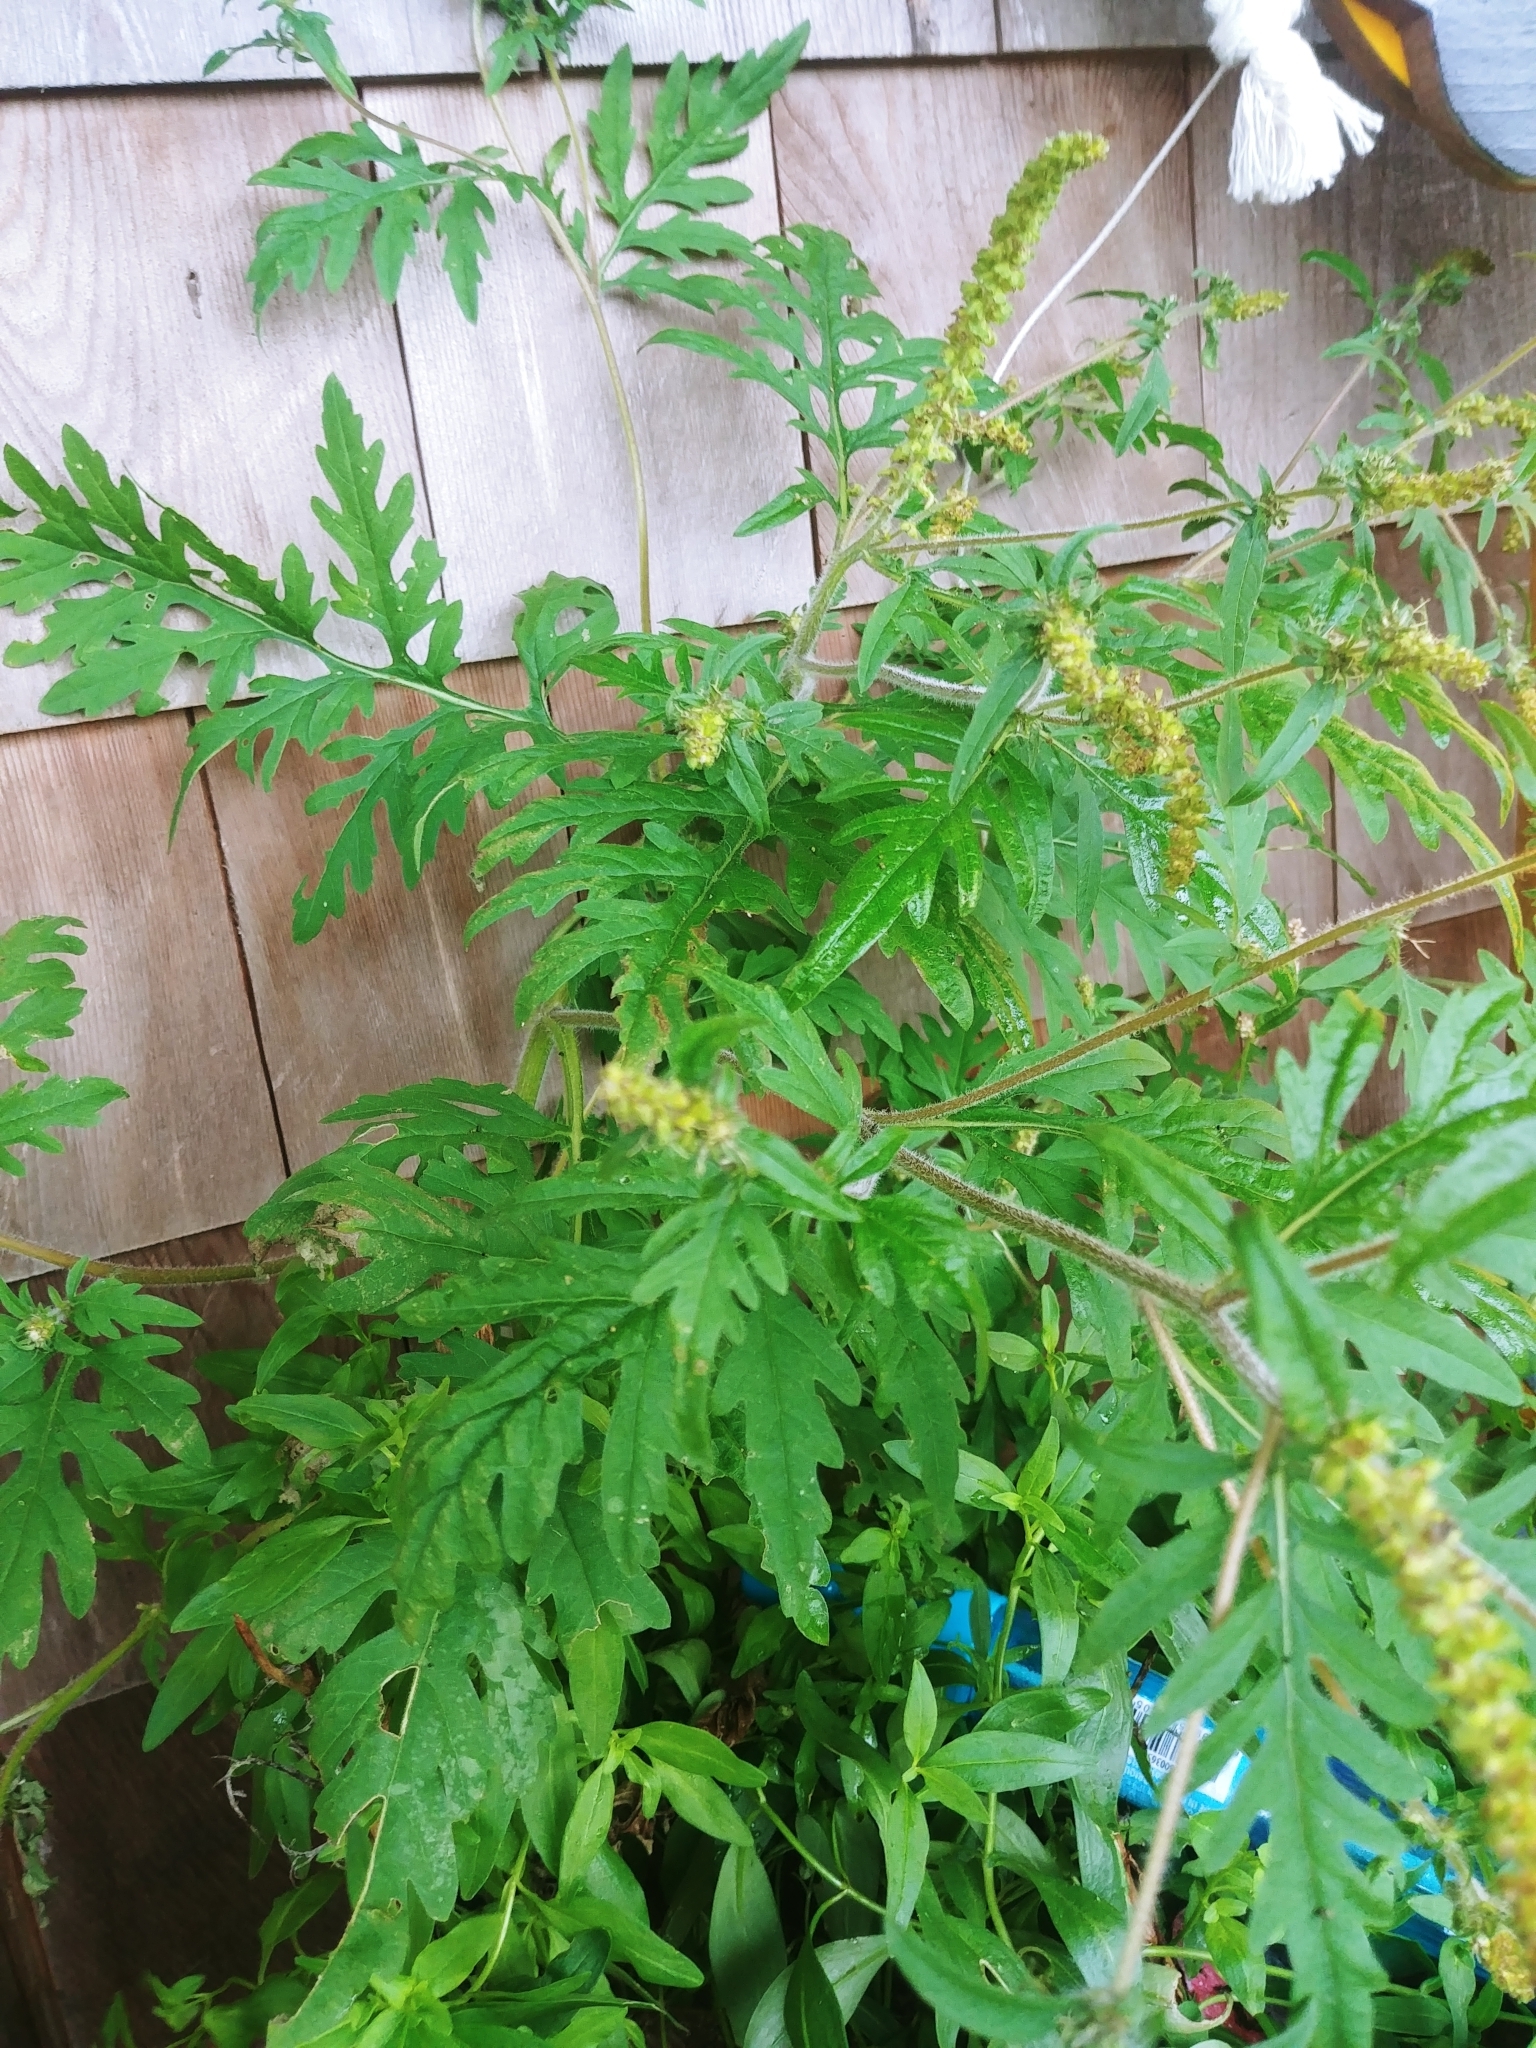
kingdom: Plantae
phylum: Tracheophyta
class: Magnoliopsida
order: Asterales
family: Asteraceae
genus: Ambrosia
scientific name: Ambrosia artemisiifolia
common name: Annual ragweed
